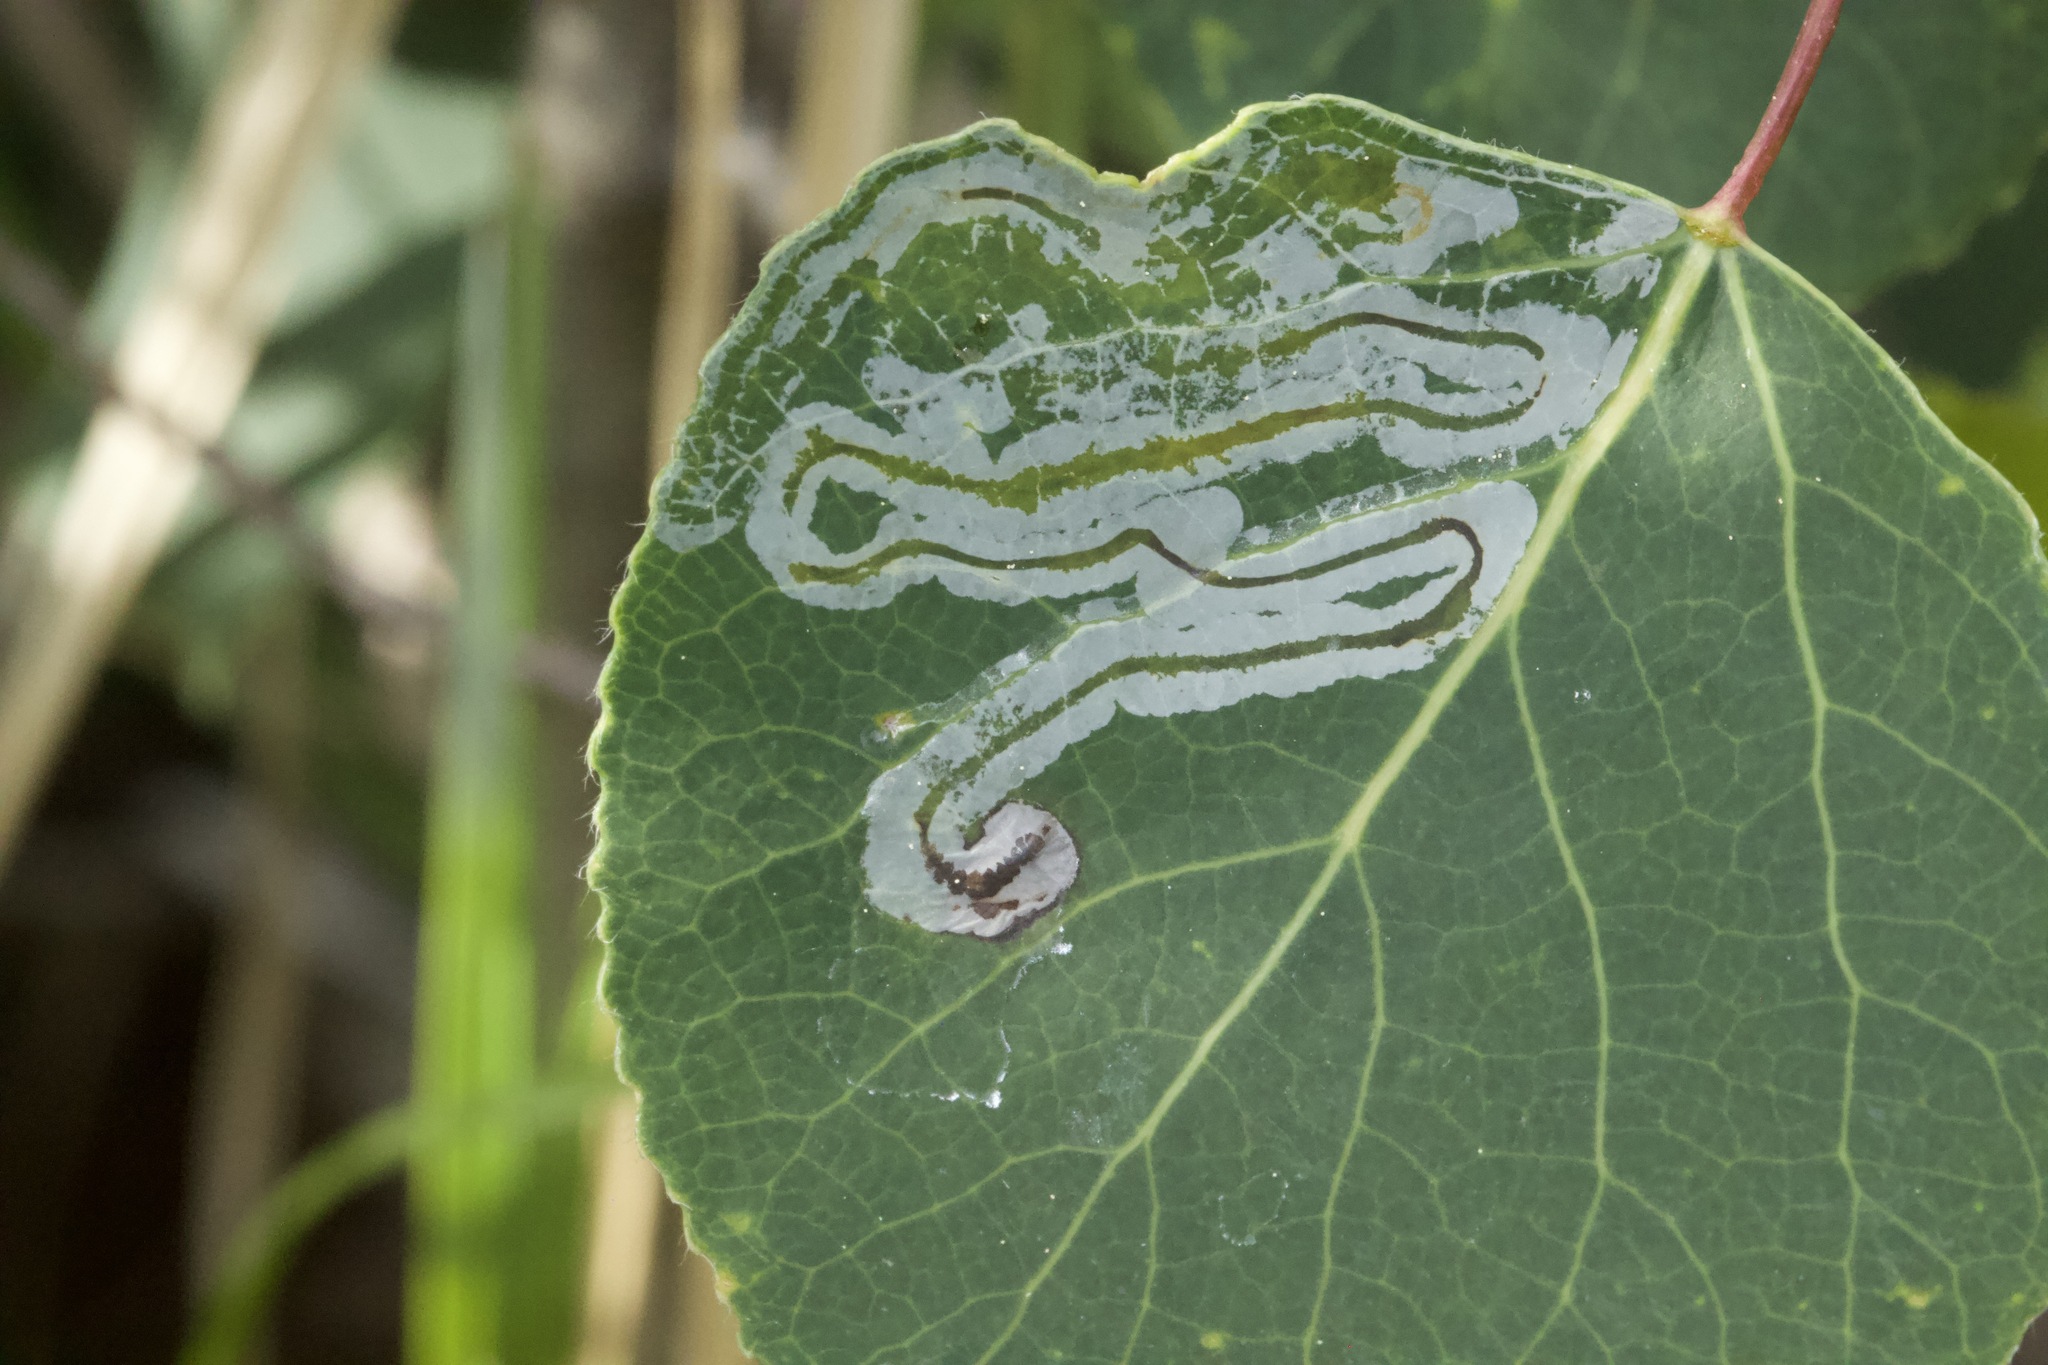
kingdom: Animalia
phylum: Arthropoda
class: Insecta
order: Lepidoptera
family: Gracillariidae
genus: Phyllocnistis
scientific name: Phyllocnistis populiella
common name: Aspen serpentine leafminer moth
